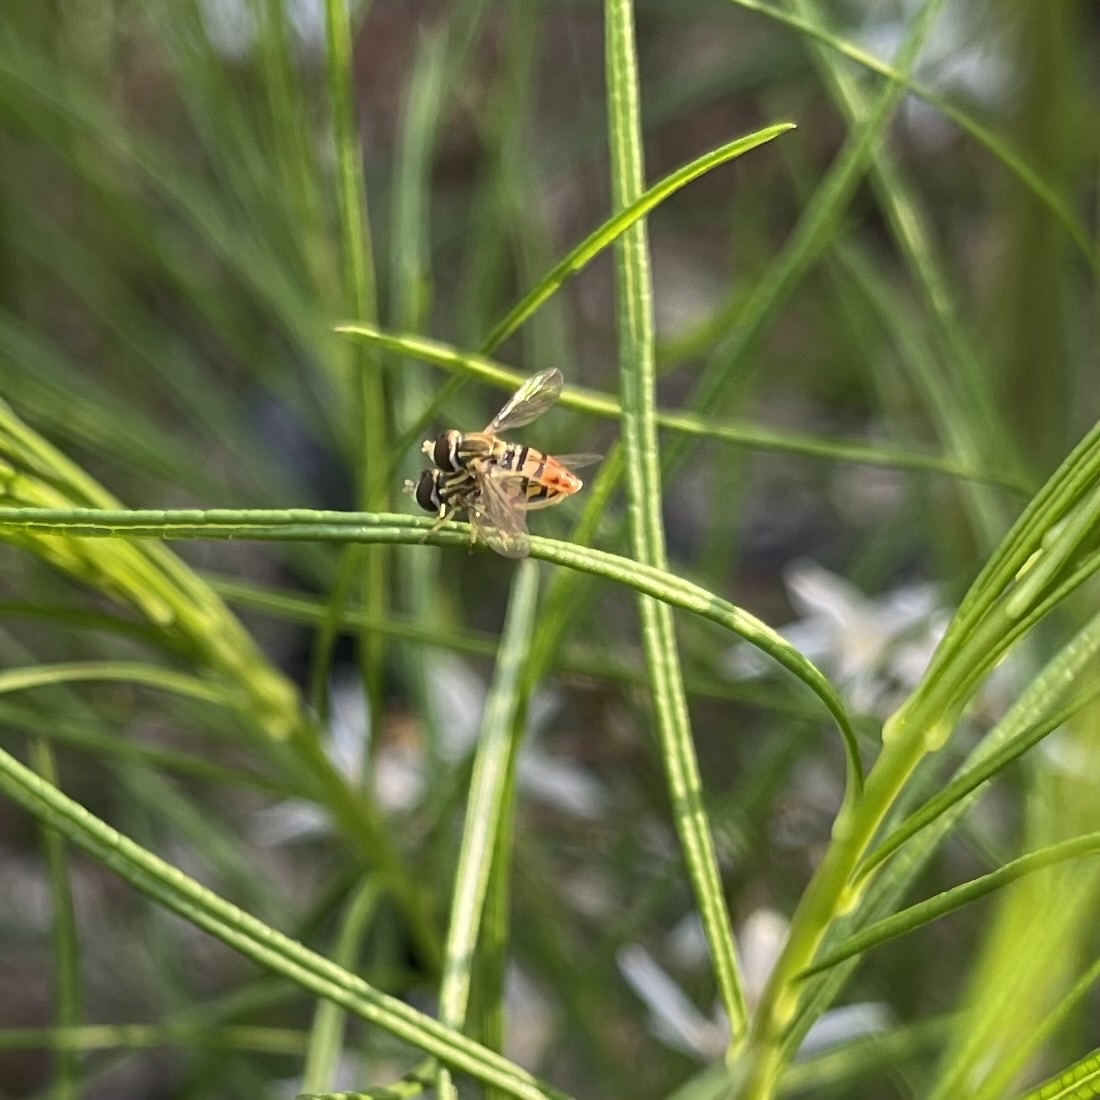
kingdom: Animalia
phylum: Arthropoda
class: Insecta
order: Diptera
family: Syrphidae
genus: Toxomerus
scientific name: Toxomerus marginatus
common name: Syrphid fly
